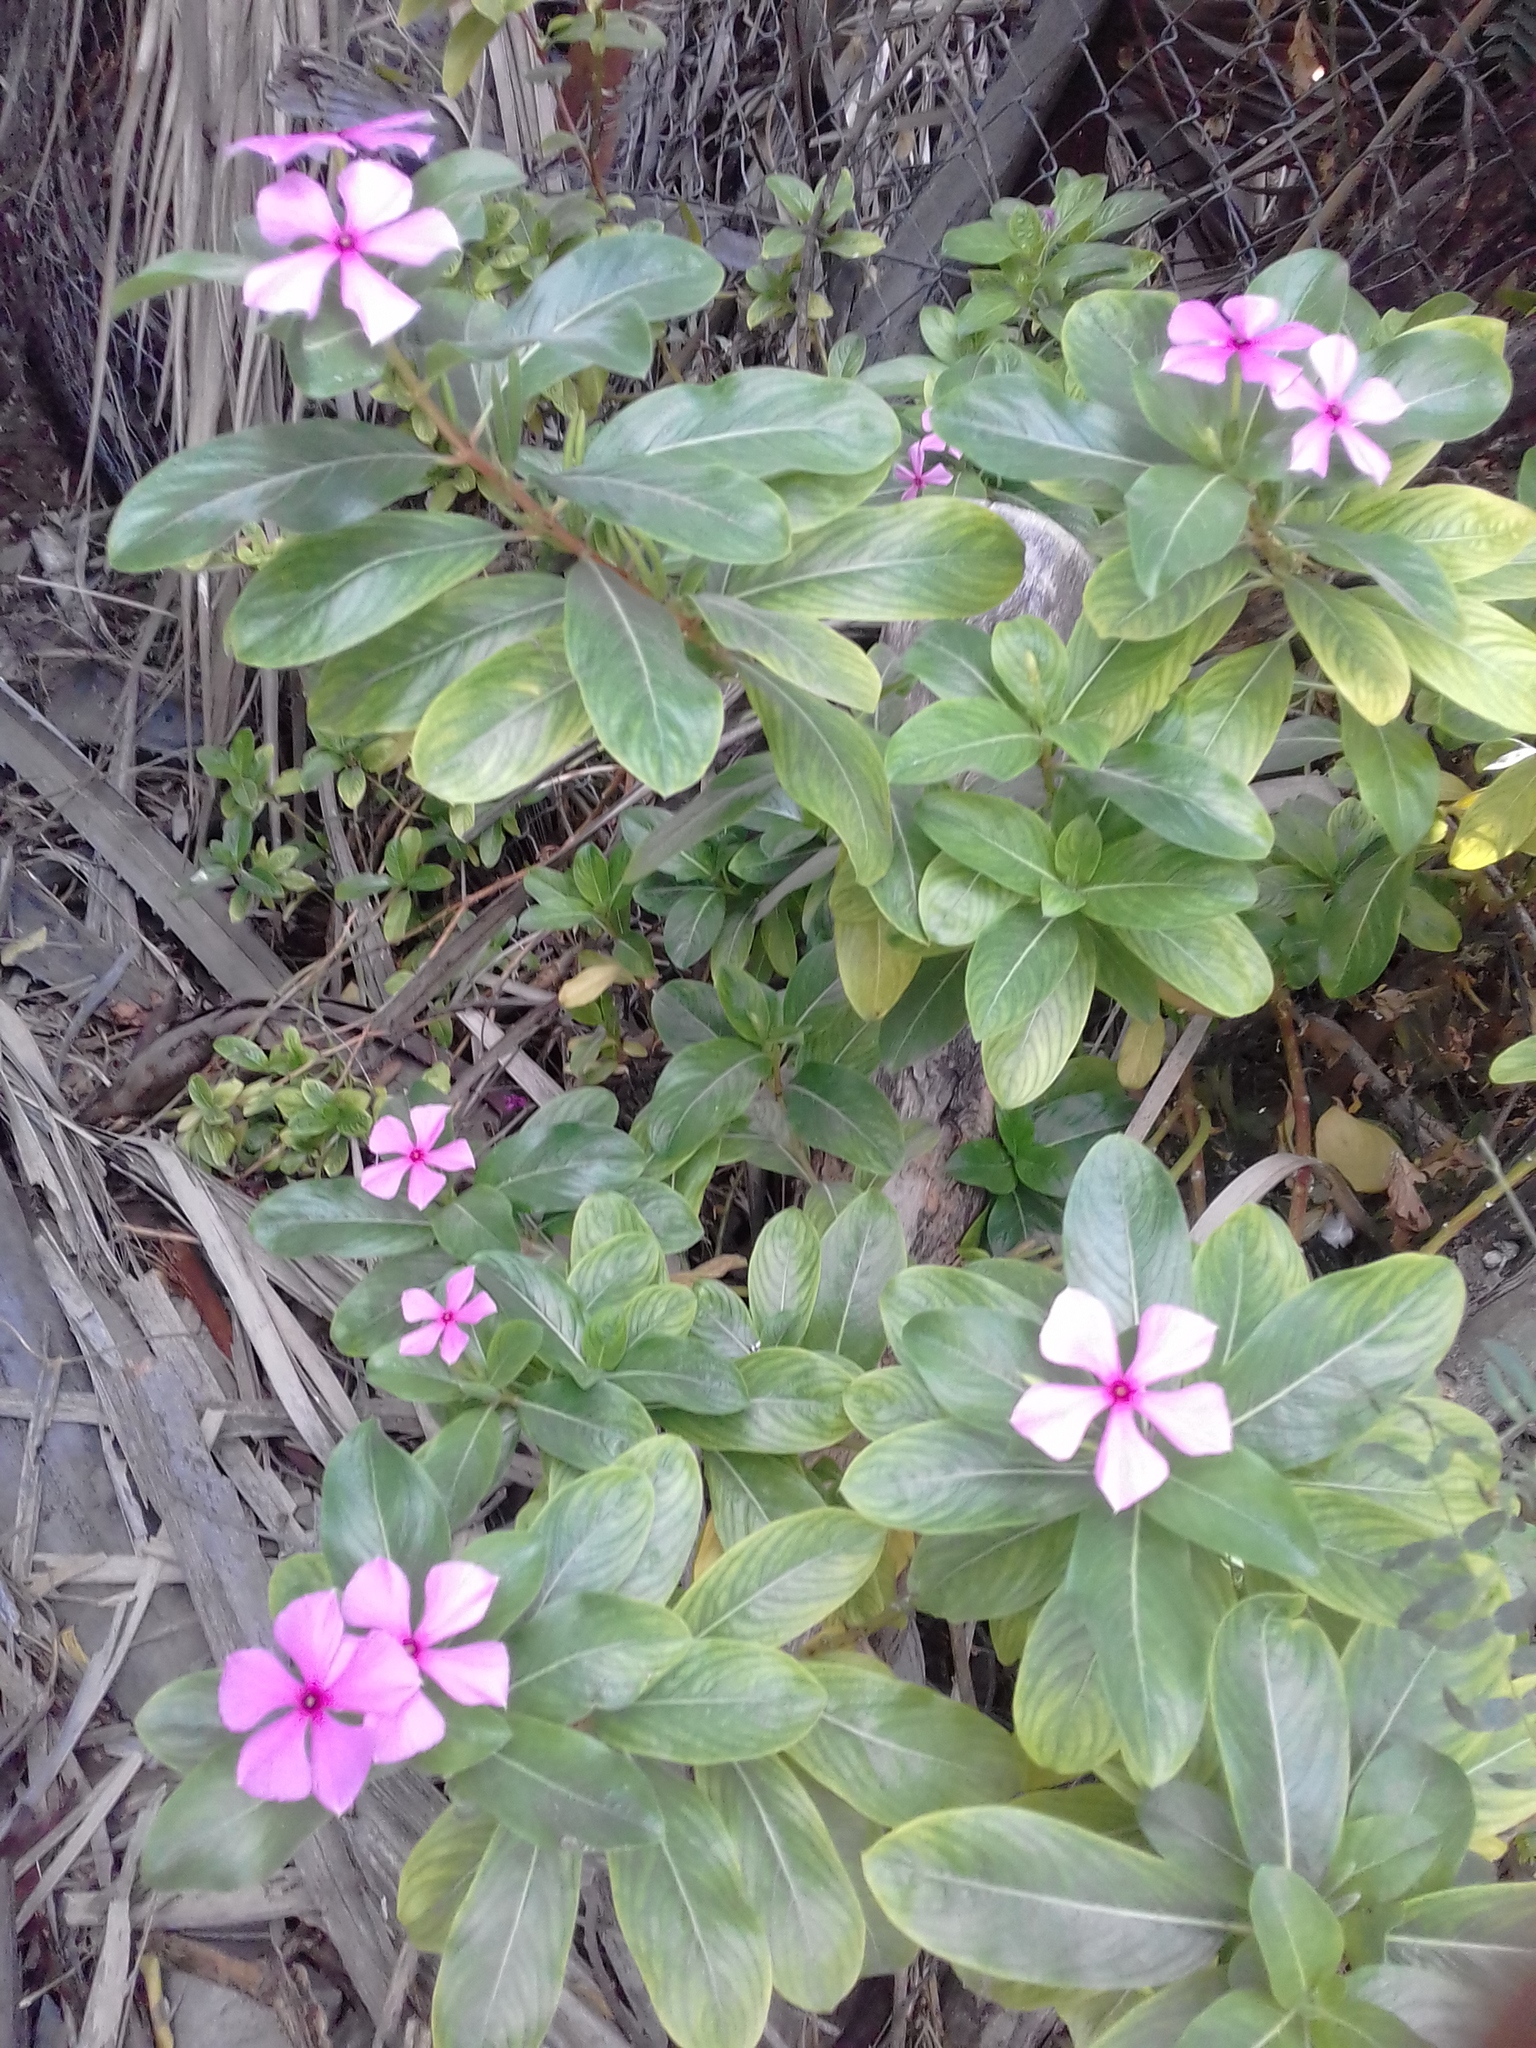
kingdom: Plantae
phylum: Tracheophyta
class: Magnoliopsida
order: Gentianales
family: Apocynaceae
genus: Catharanthus
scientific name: Catharanthus roseus
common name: Madagascar periwinkle
